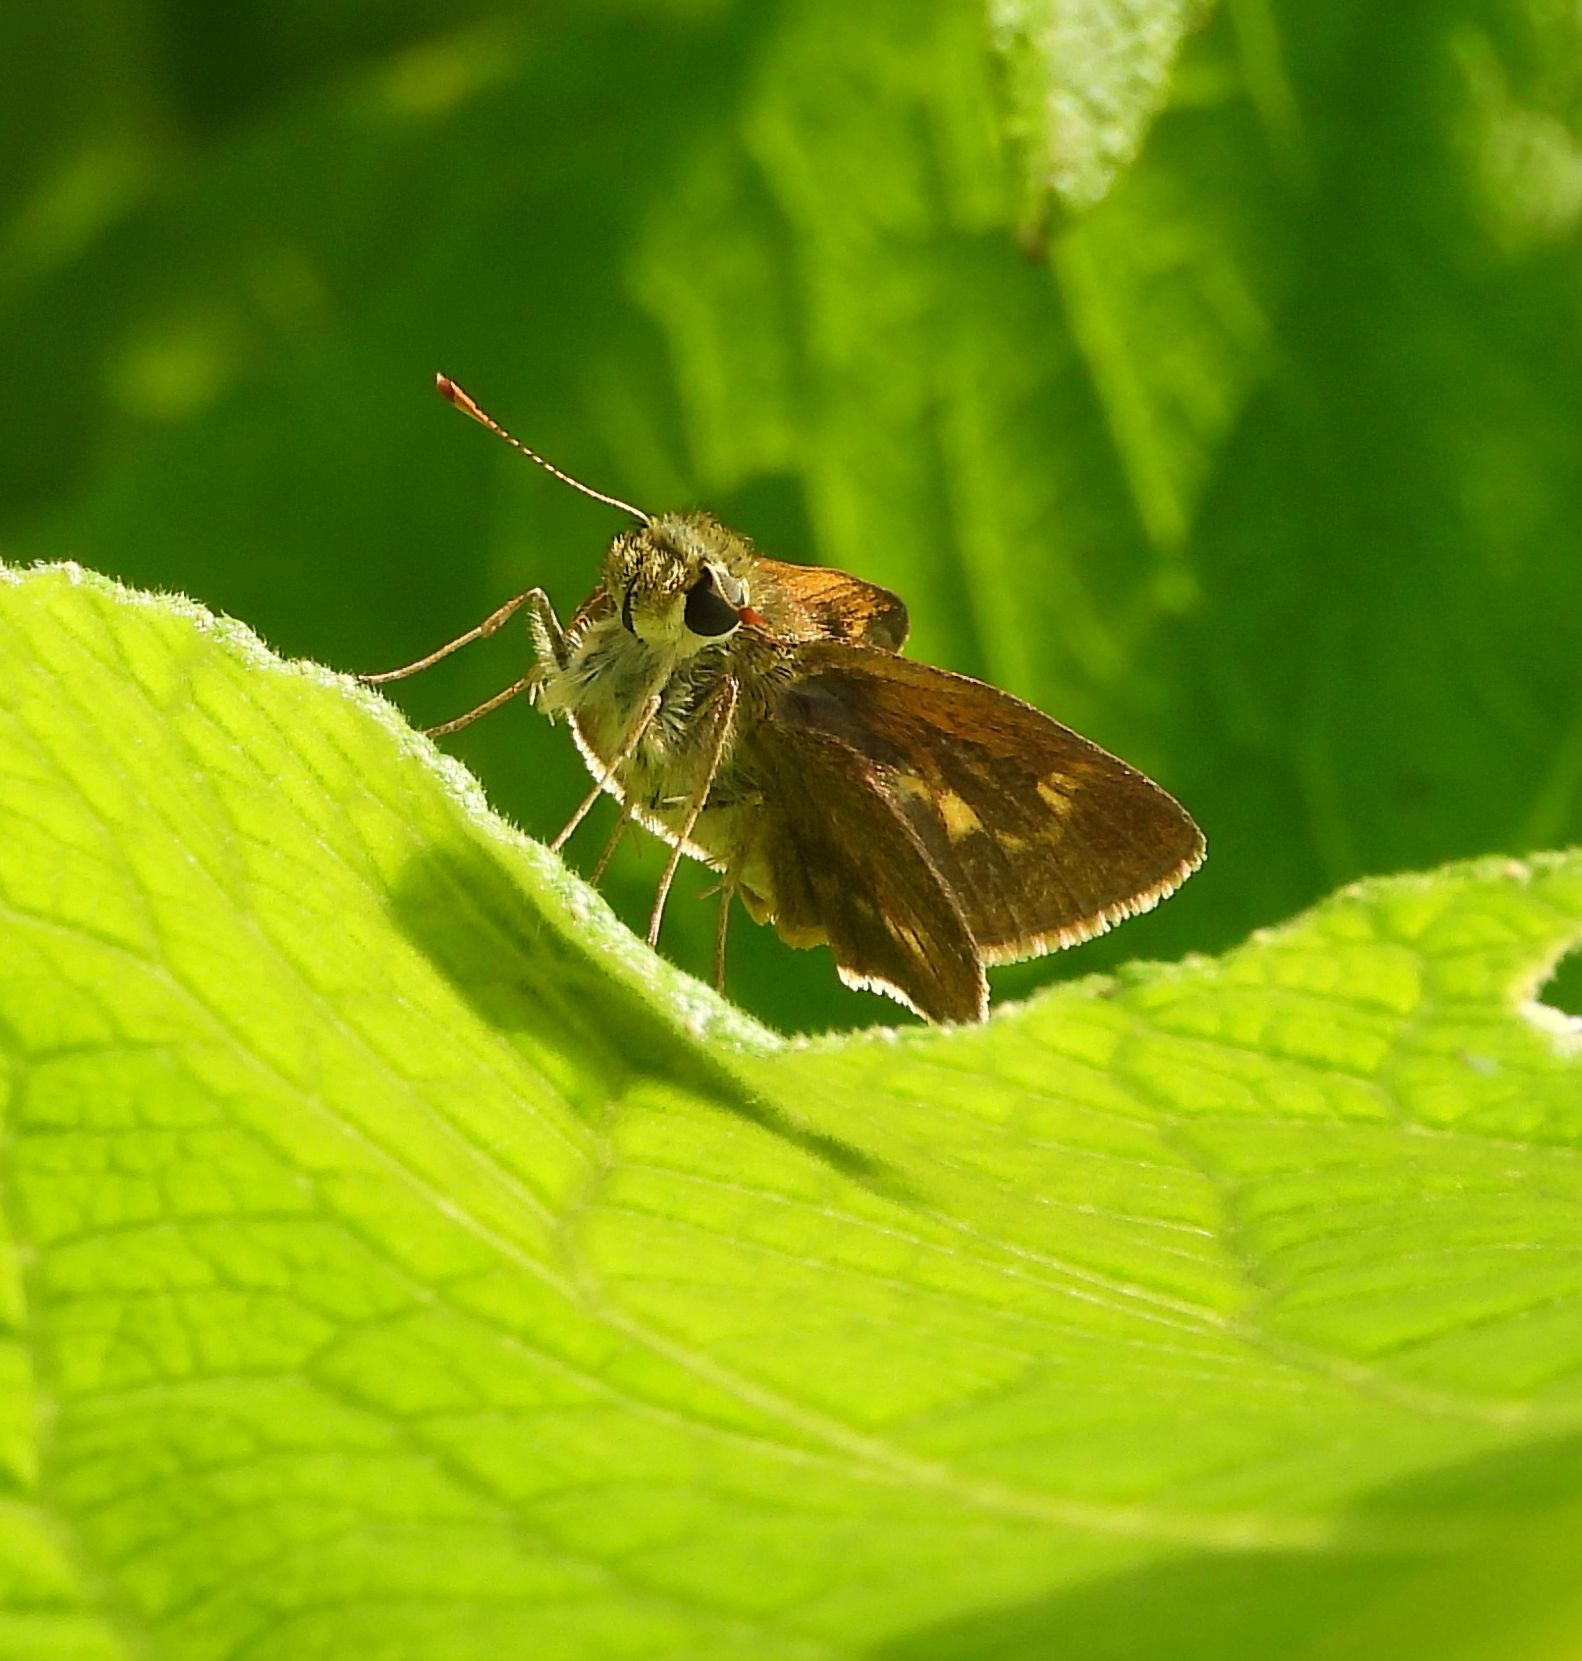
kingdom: Animalia
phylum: Arthropoda
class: Insecta
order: Lepidoptera
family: Hesperiidae
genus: Polites
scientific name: Polites egeremet
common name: Northern broken-dash
